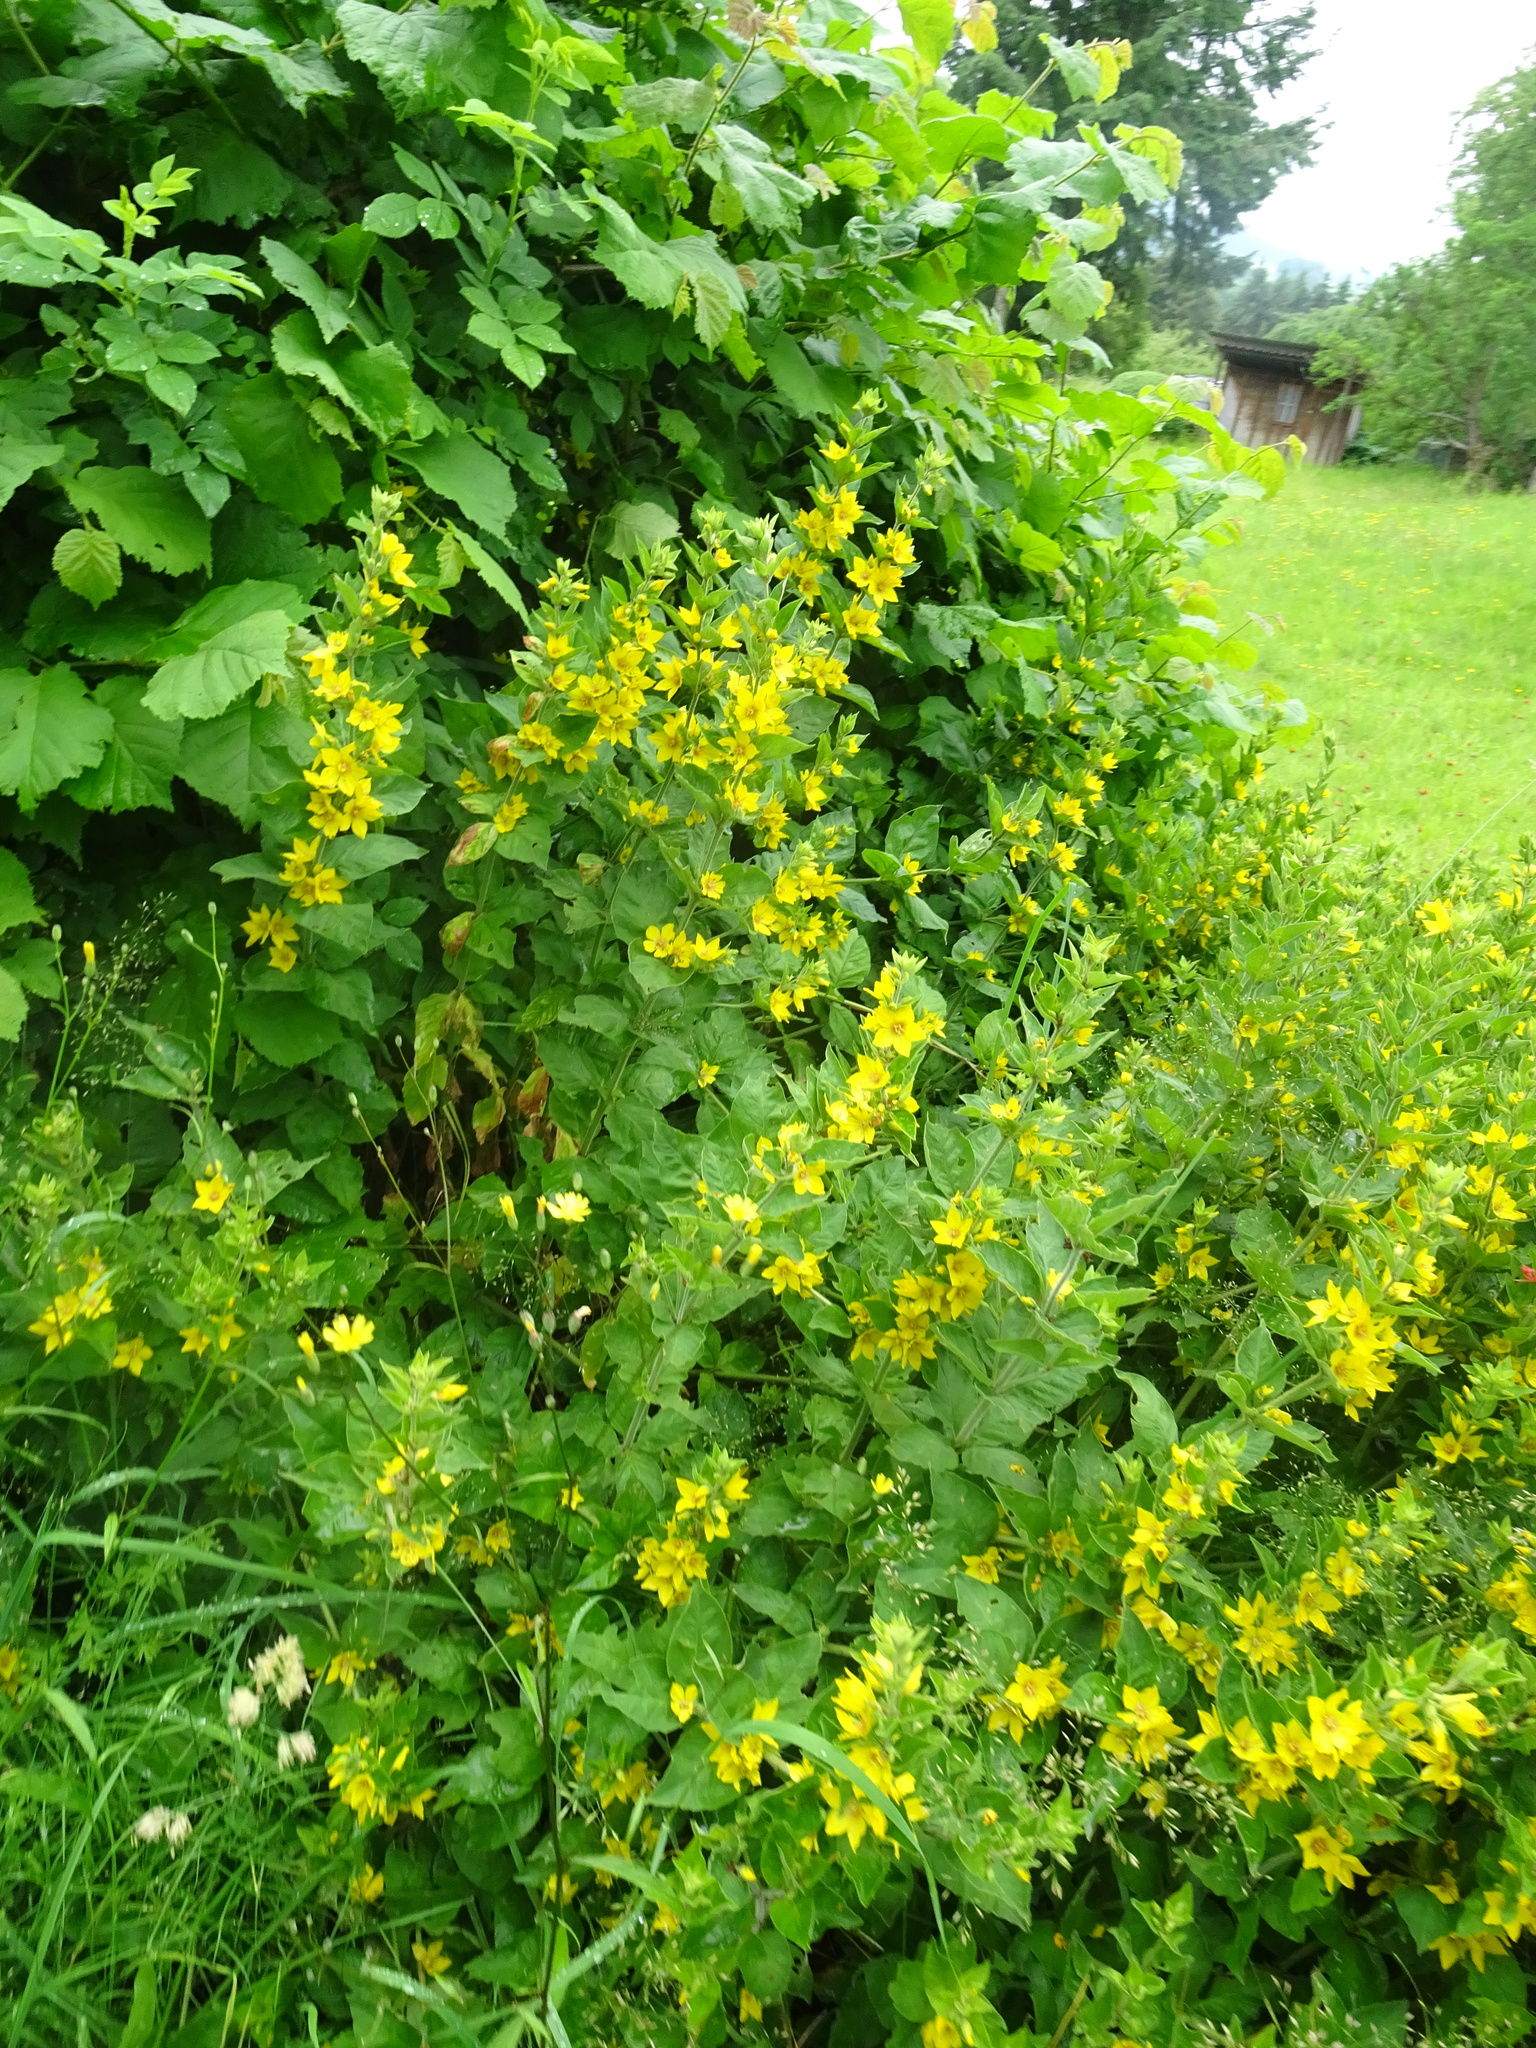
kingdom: Plantae
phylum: Tracheophyta
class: Magnoliopsida
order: Ericales
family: Primulaceae
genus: Lysimachia
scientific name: Lysimachia punctata
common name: Dotted loosestrife
